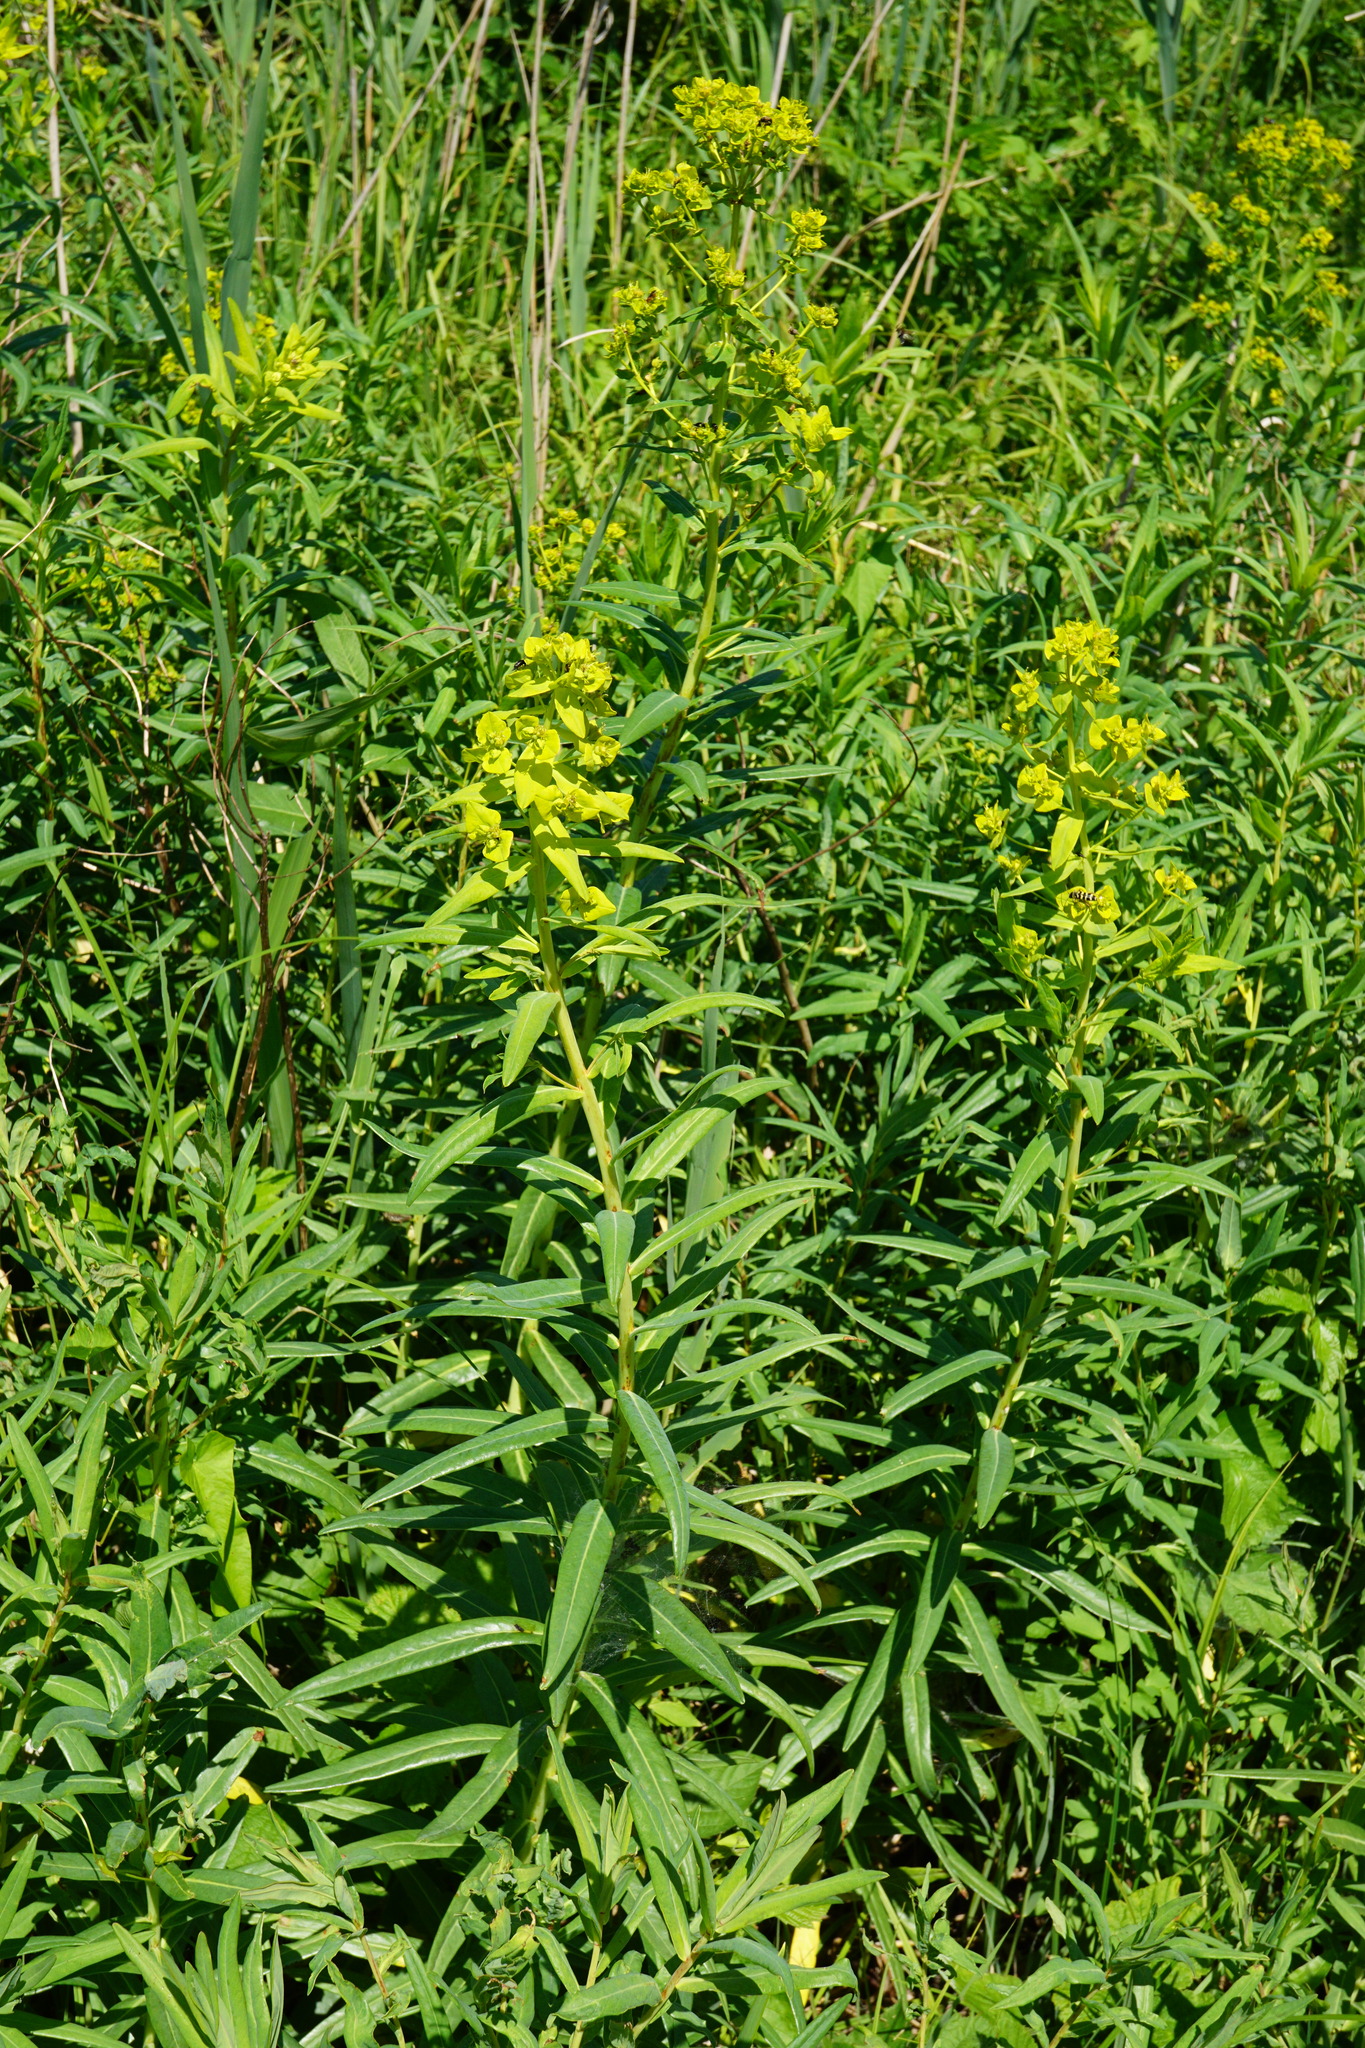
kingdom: Plantae
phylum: Tracheophyta
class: Magnoliopsida
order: Malpighiales
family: Euphorbiaceae
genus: Euphorbia
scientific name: Euphorbia lucida
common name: Shining spurge
